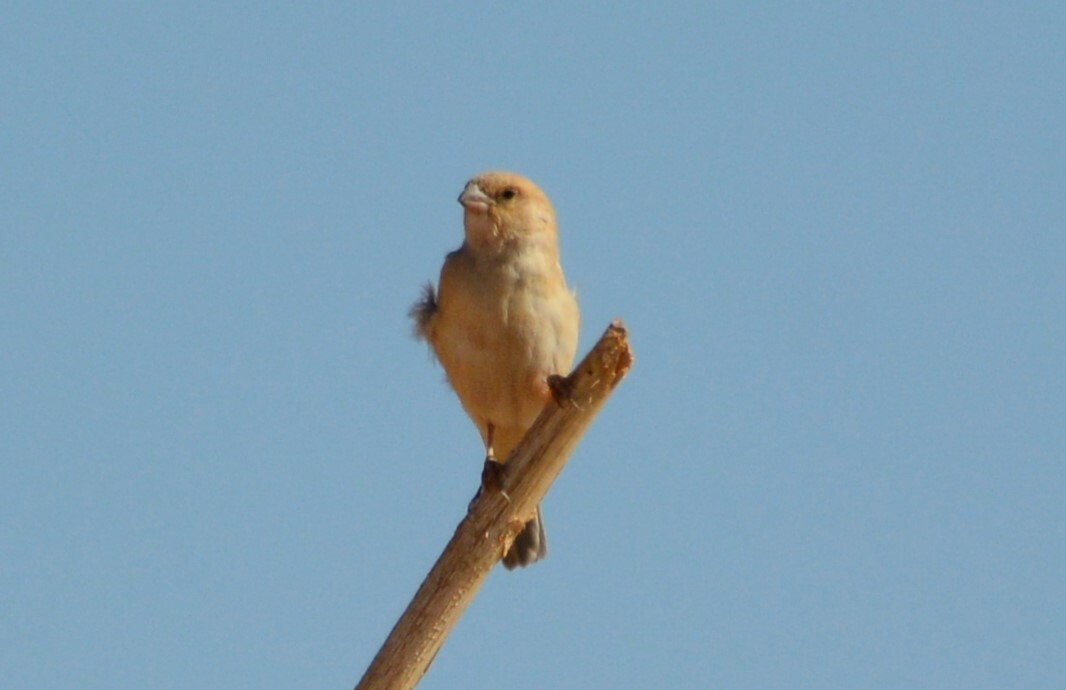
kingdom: Animalia
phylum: Chordata
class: Aves
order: Passeriformes
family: Passeridae
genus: Passer
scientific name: Passer simplex
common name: Desert sparrow
